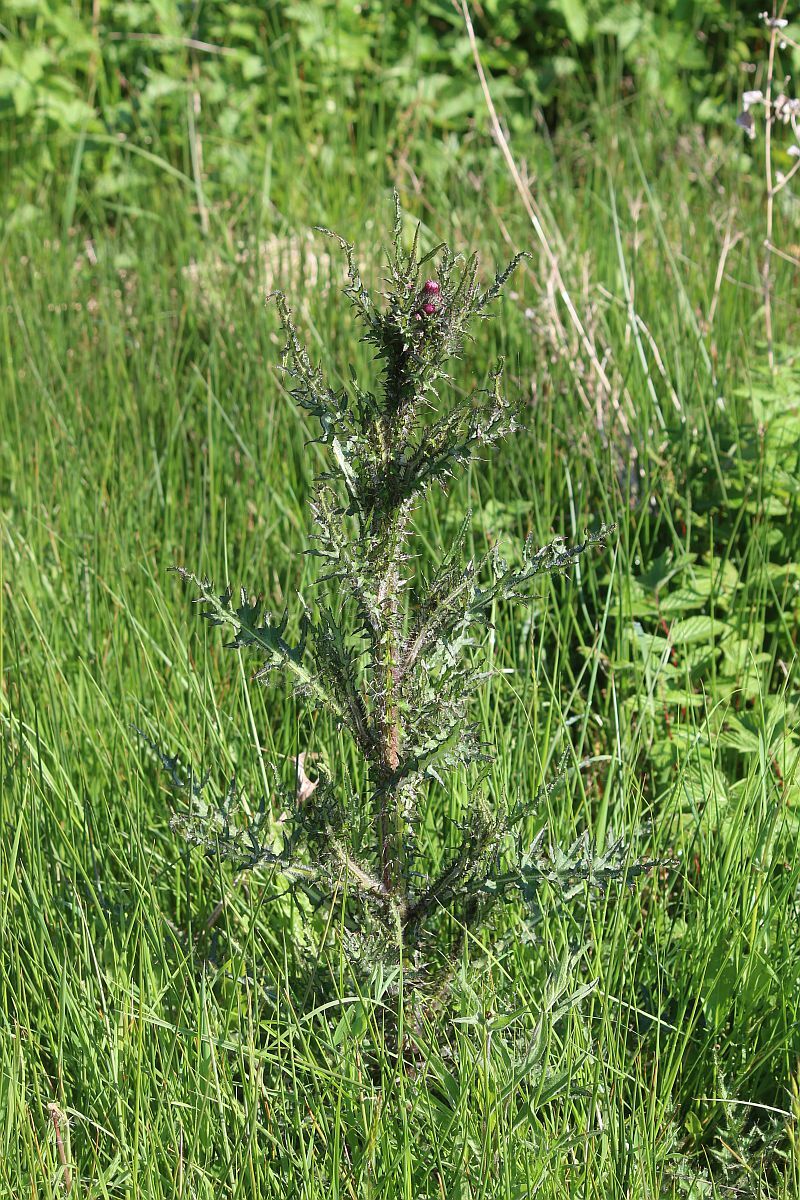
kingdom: Plantae
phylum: Tracheophyta
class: Magnoliopsida
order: Asterales
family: Asteraceae
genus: Cirsium
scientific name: Cirsium palustre
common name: Marsh thistle
